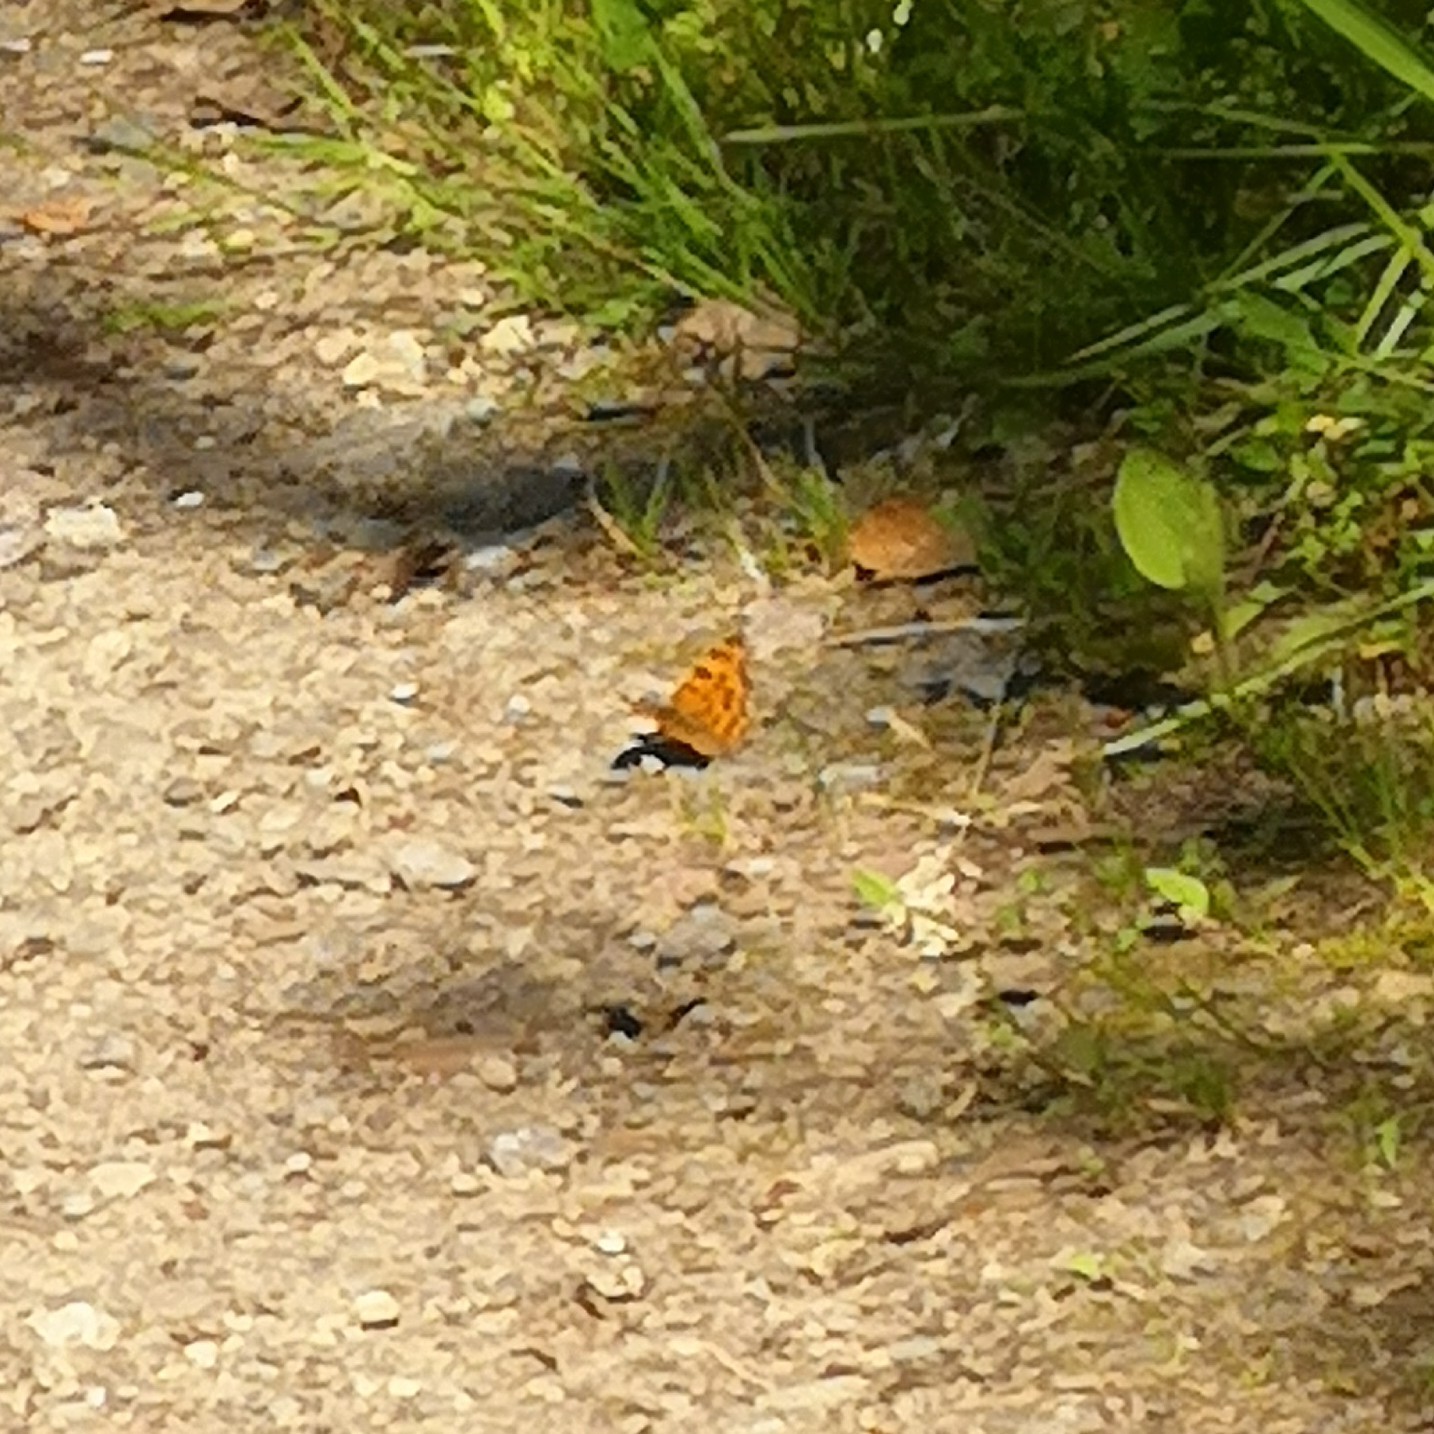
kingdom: Animalia
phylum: Arthropoda
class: Insecta
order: Lepidoptera
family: Nymphalidae
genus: Polygonia
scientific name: Polygonia c-album
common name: Comma
